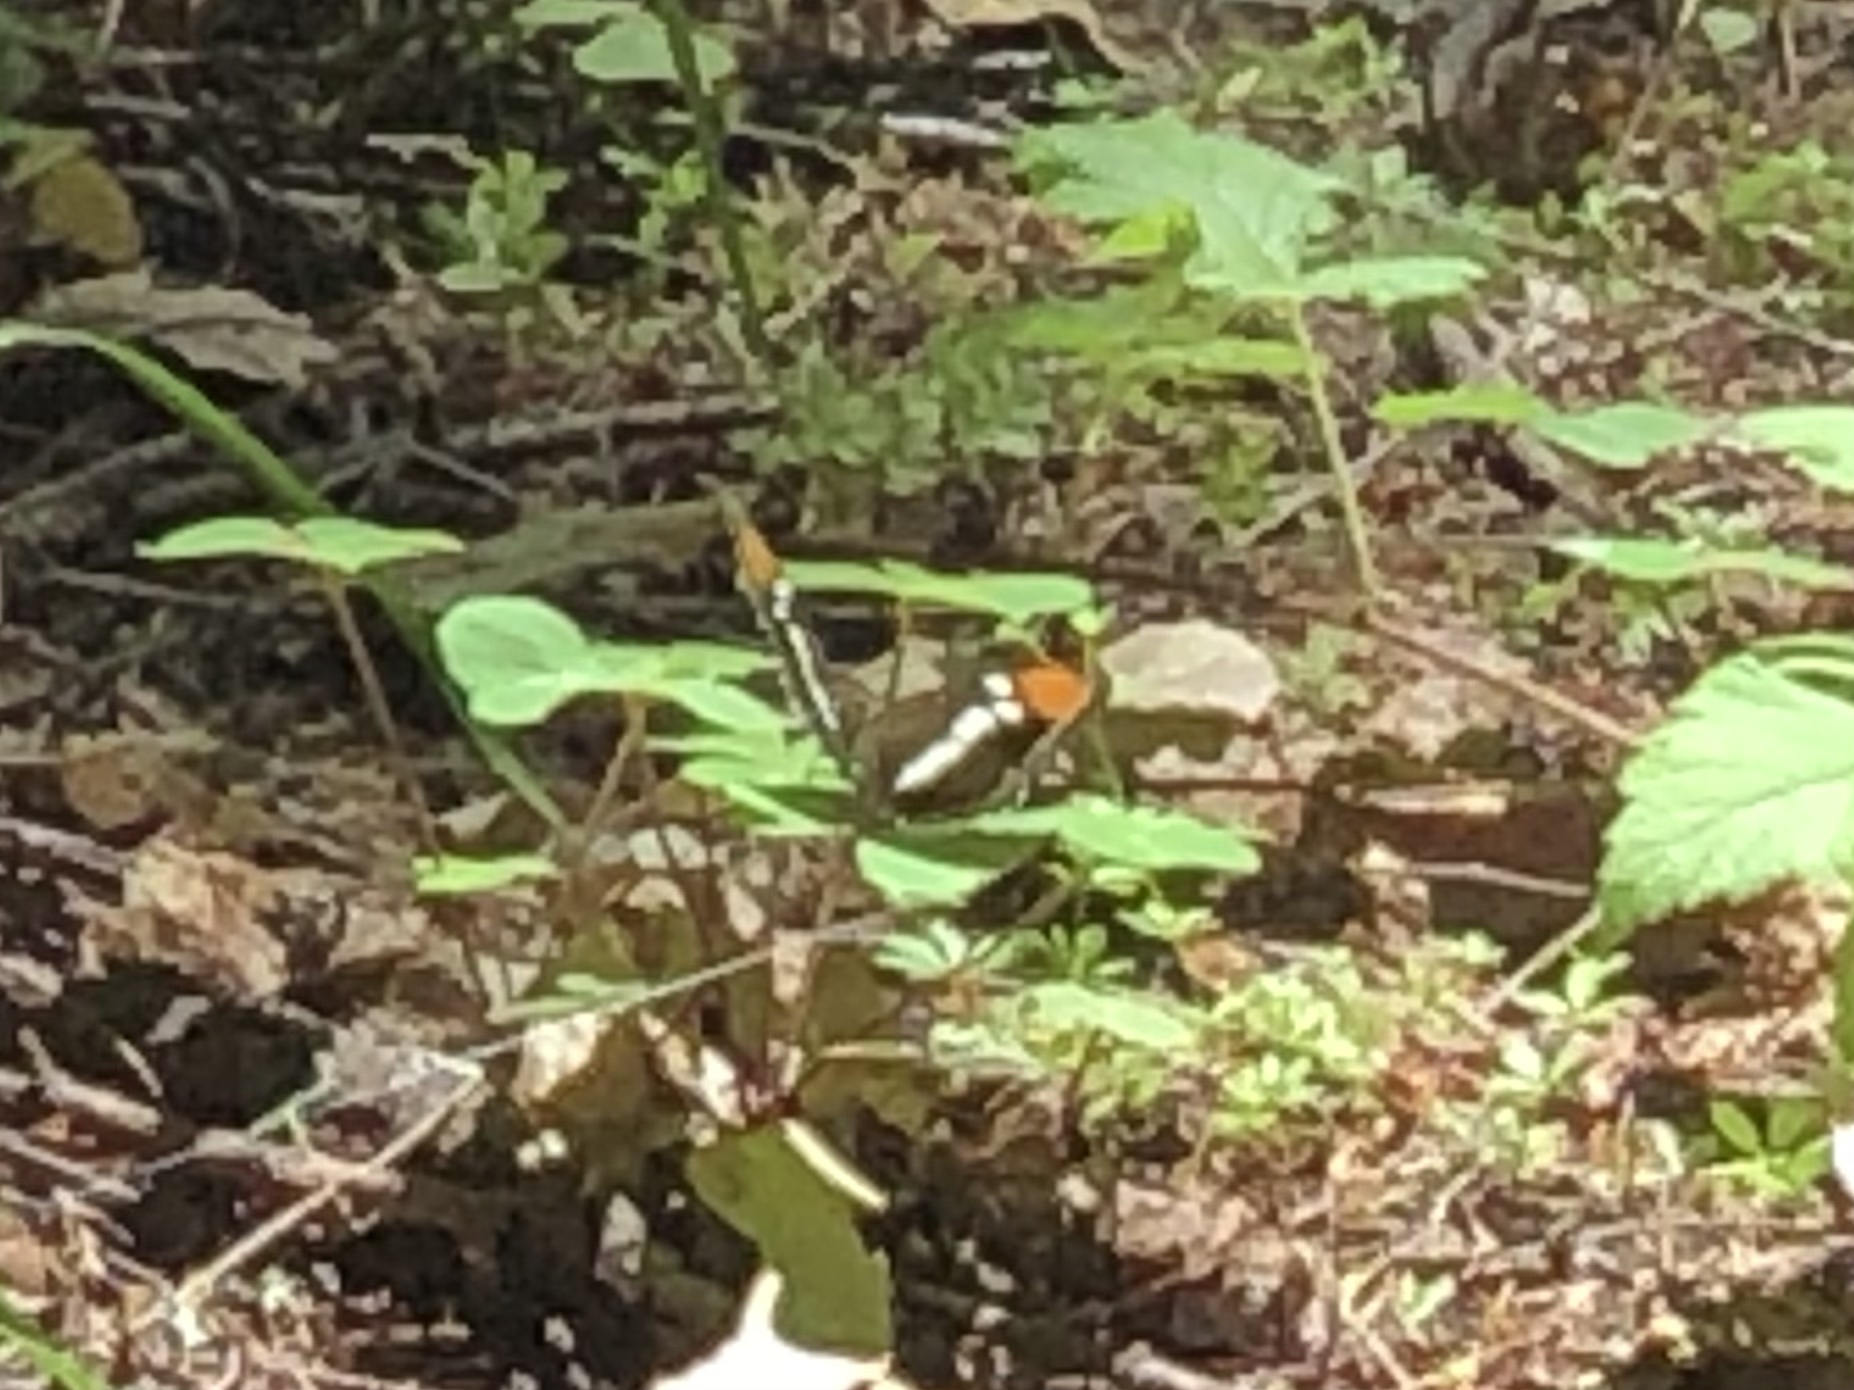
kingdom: Animalia
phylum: Arthropoda
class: Insecta
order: Lepidoptera
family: Nymphalidae
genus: Limenitis
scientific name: Limenitis bredowii
